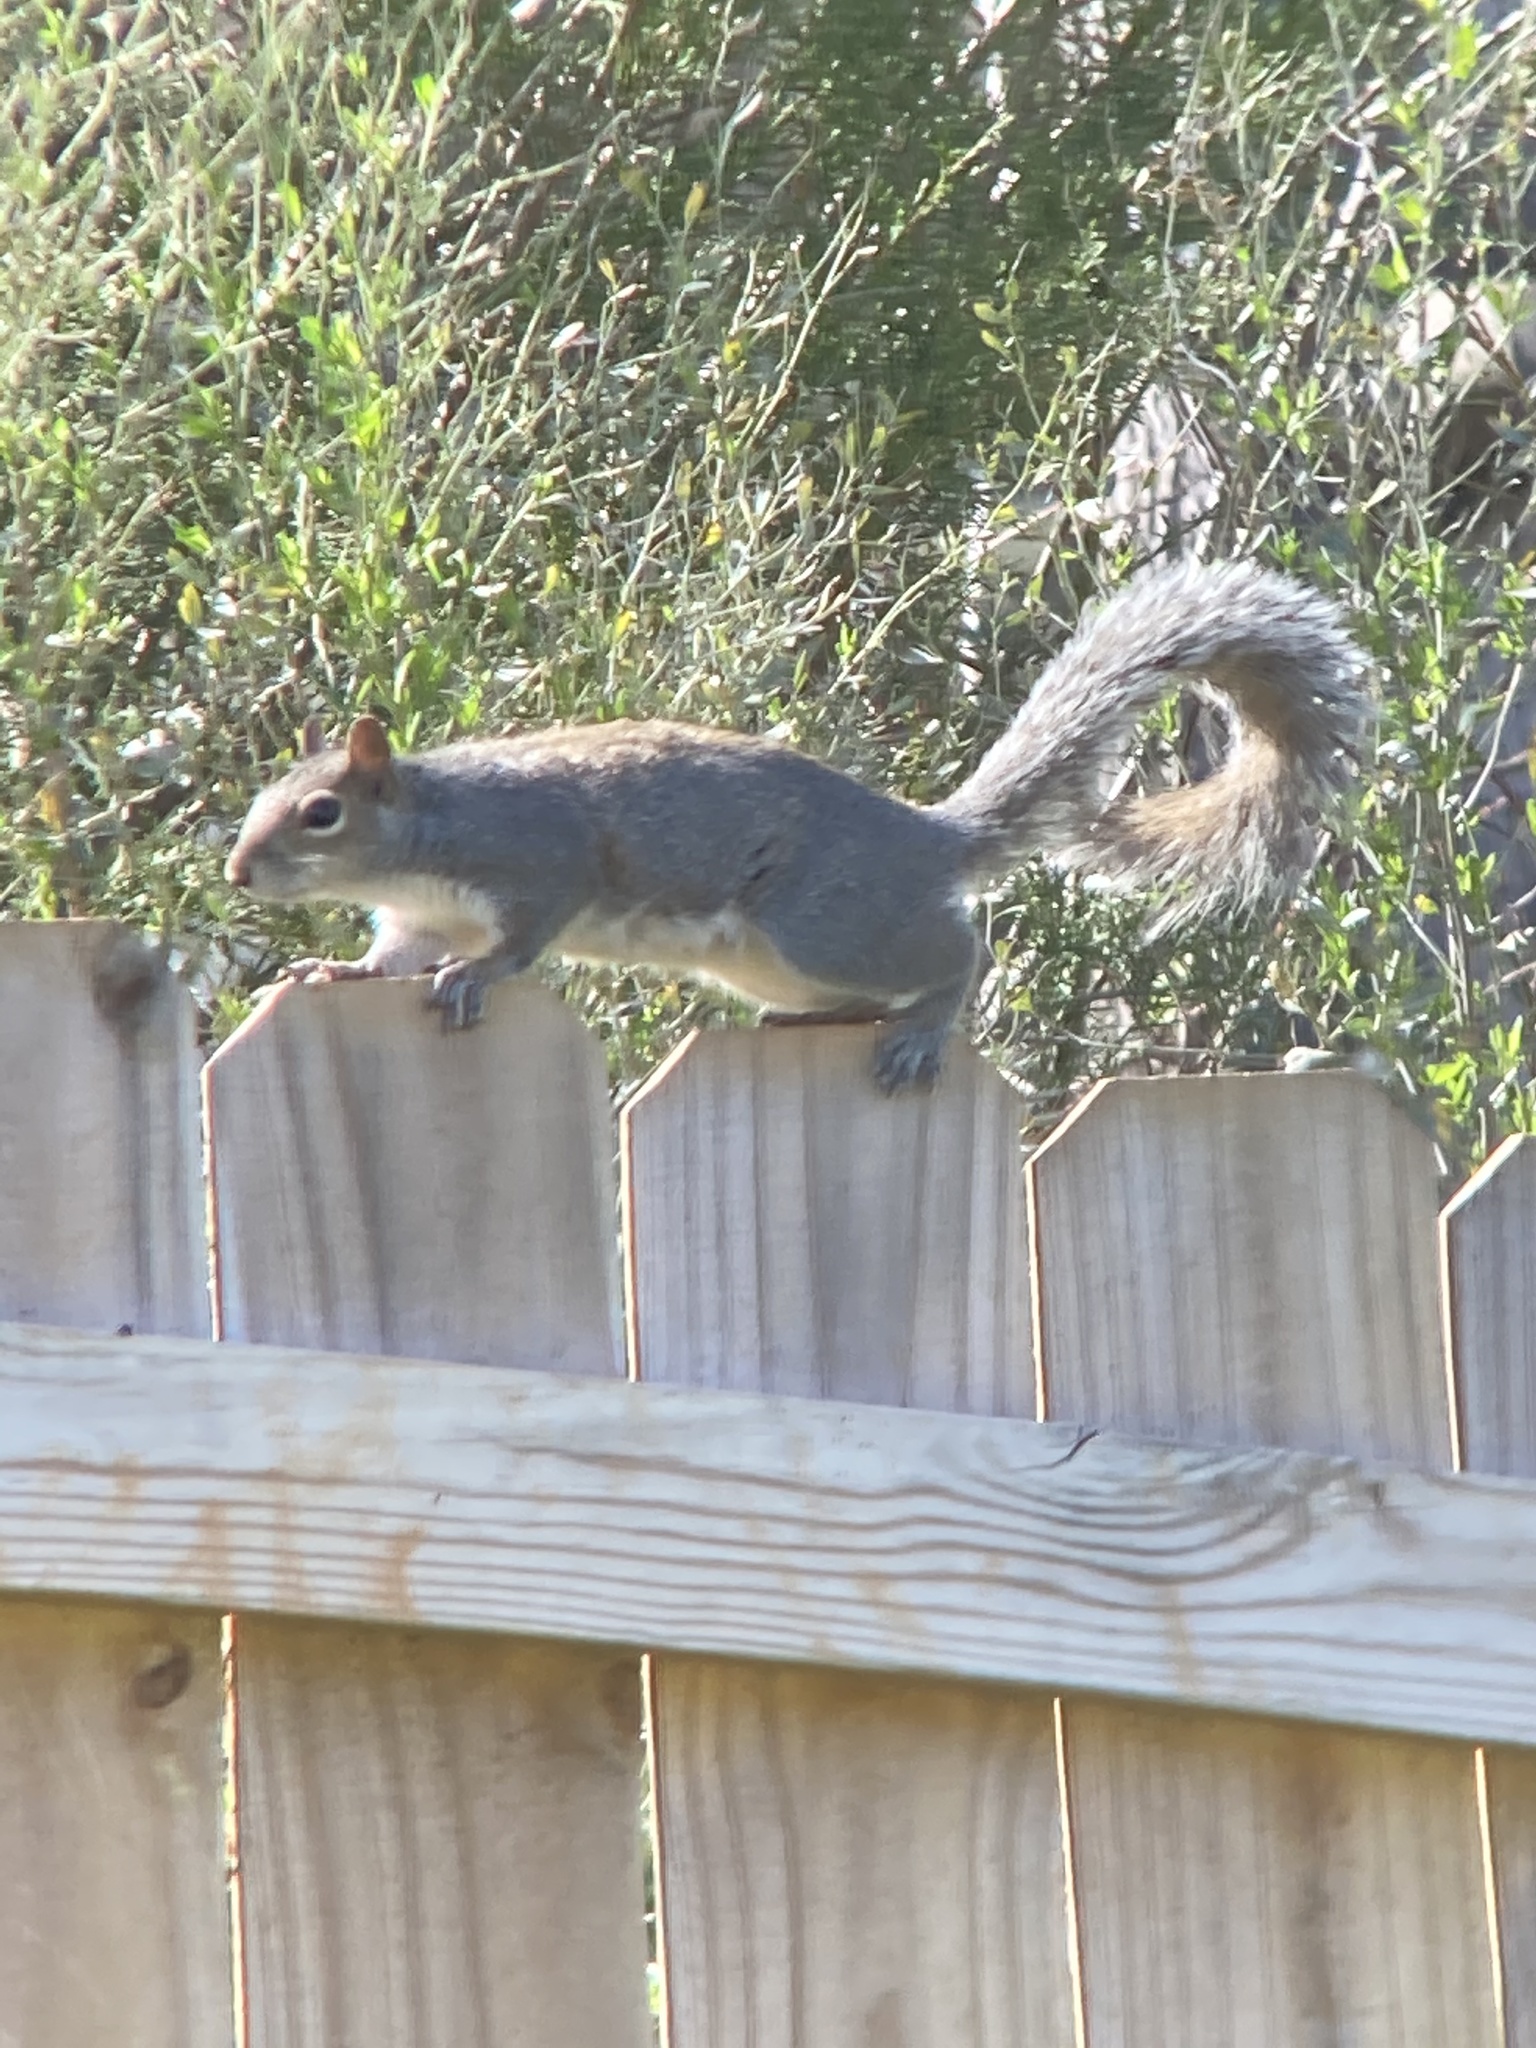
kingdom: Animalia
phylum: Chordata
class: Mammalia
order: Rodentia
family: Sciuridae
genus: Sciurus
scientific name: Sciurus carolinensis
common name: Eastern gray squirrel
